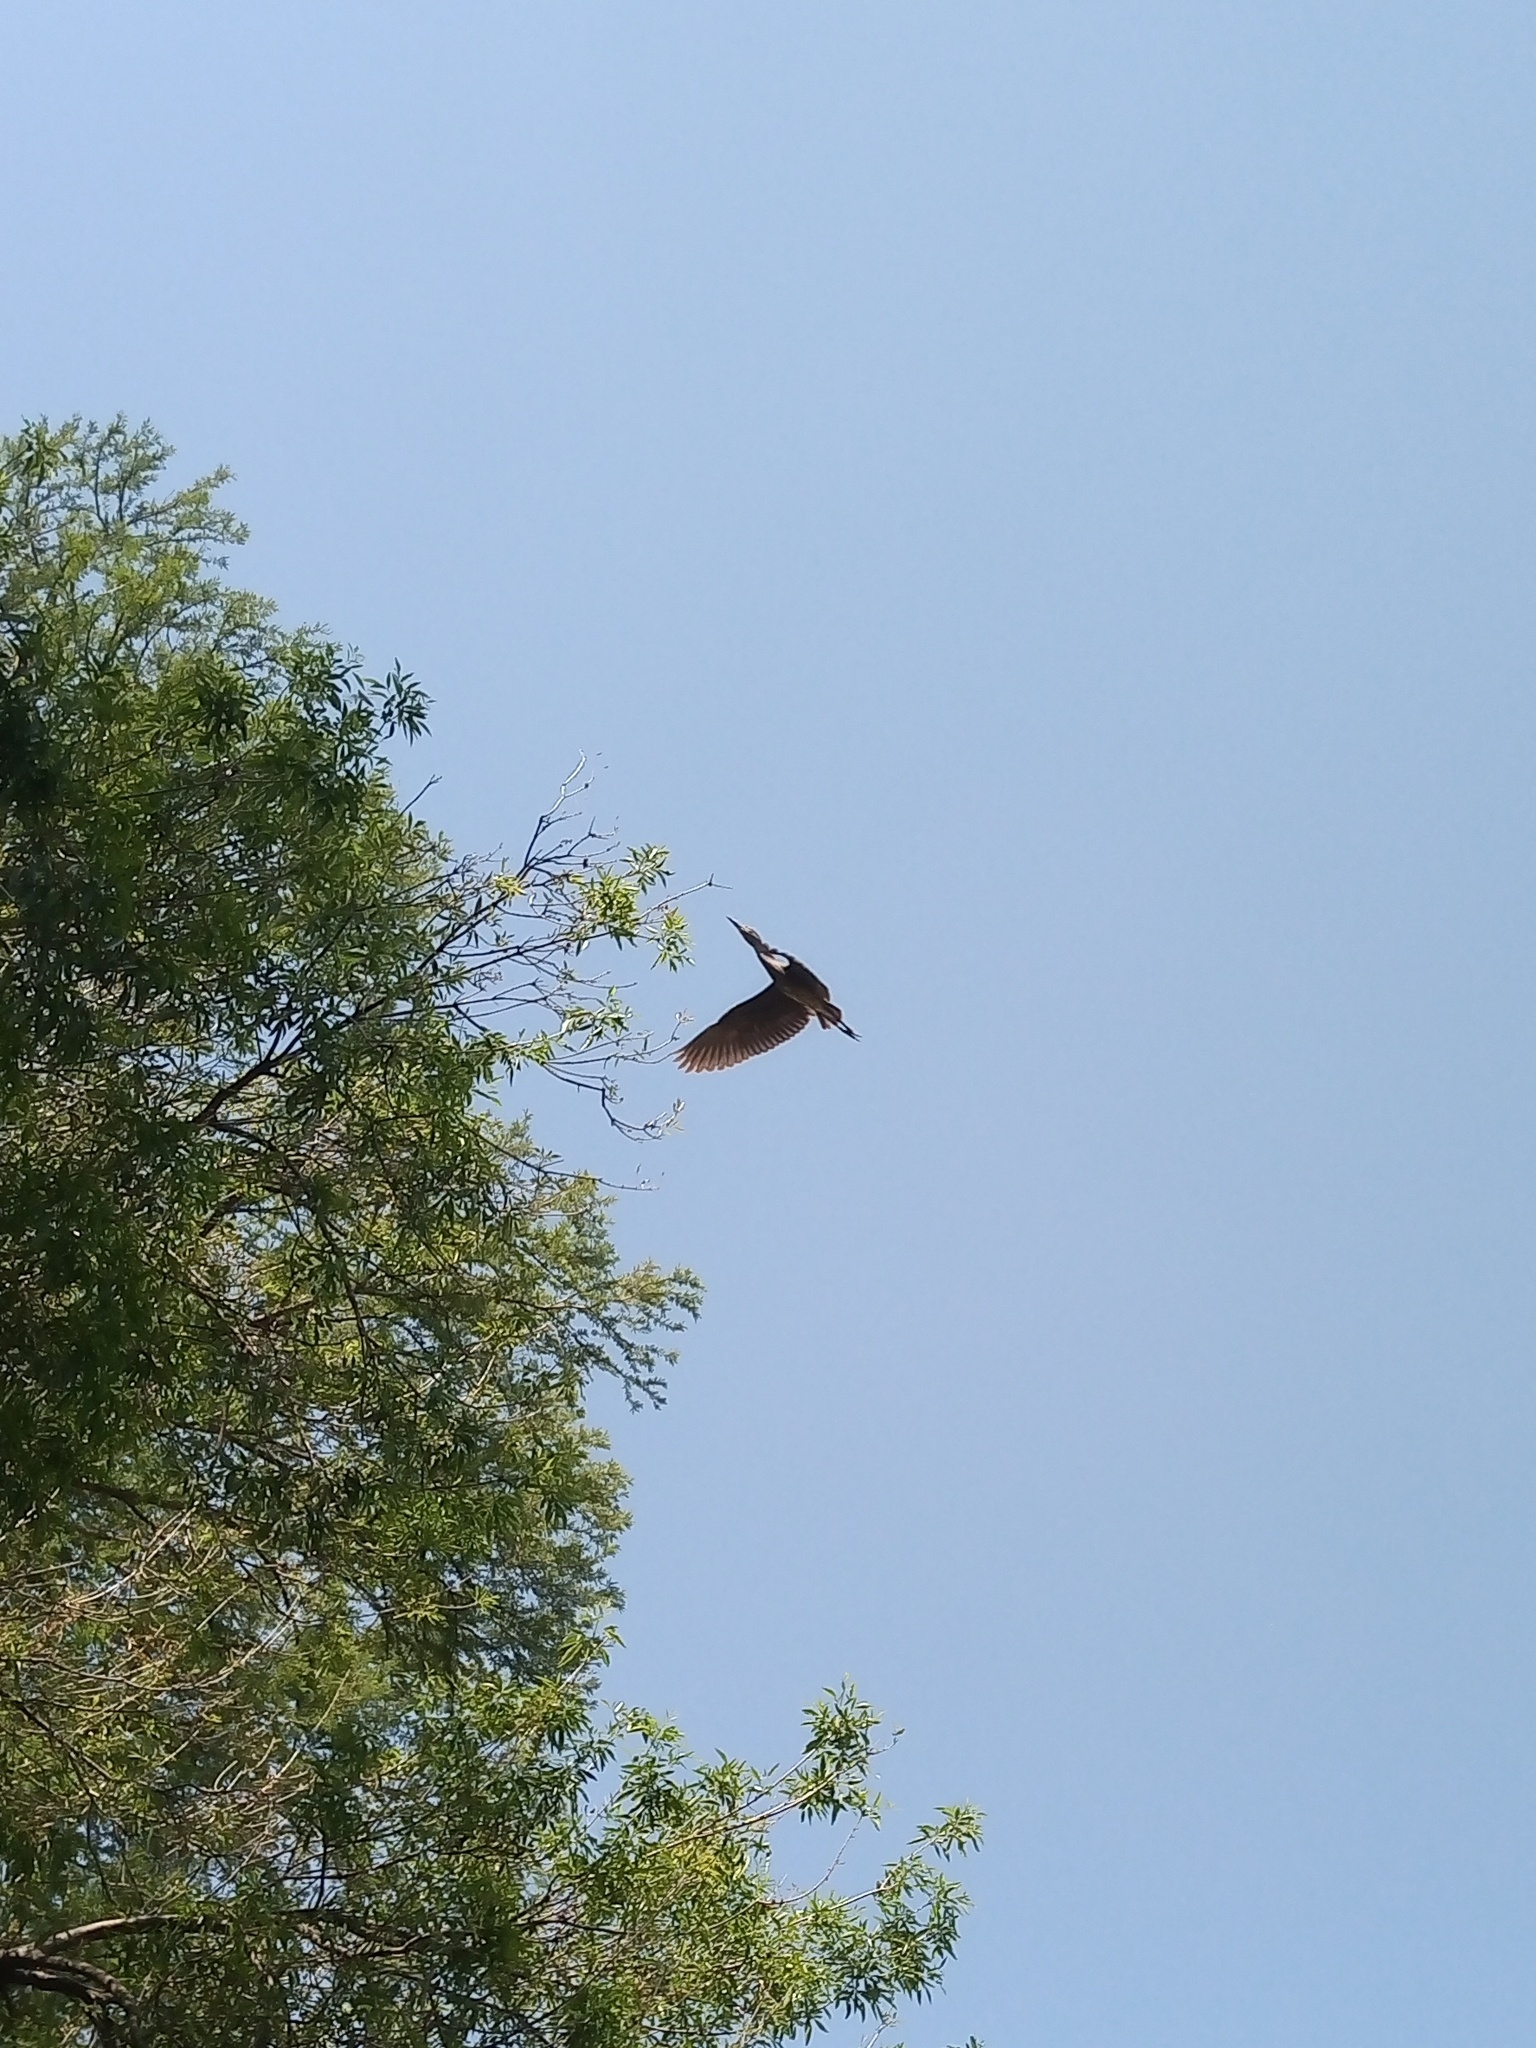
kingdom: Animalia
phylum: Chordata
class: Aves
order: Pelecaniformes
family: Ardeidae
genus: Ardea
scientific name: Ardea herodias
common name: Great blue heron
